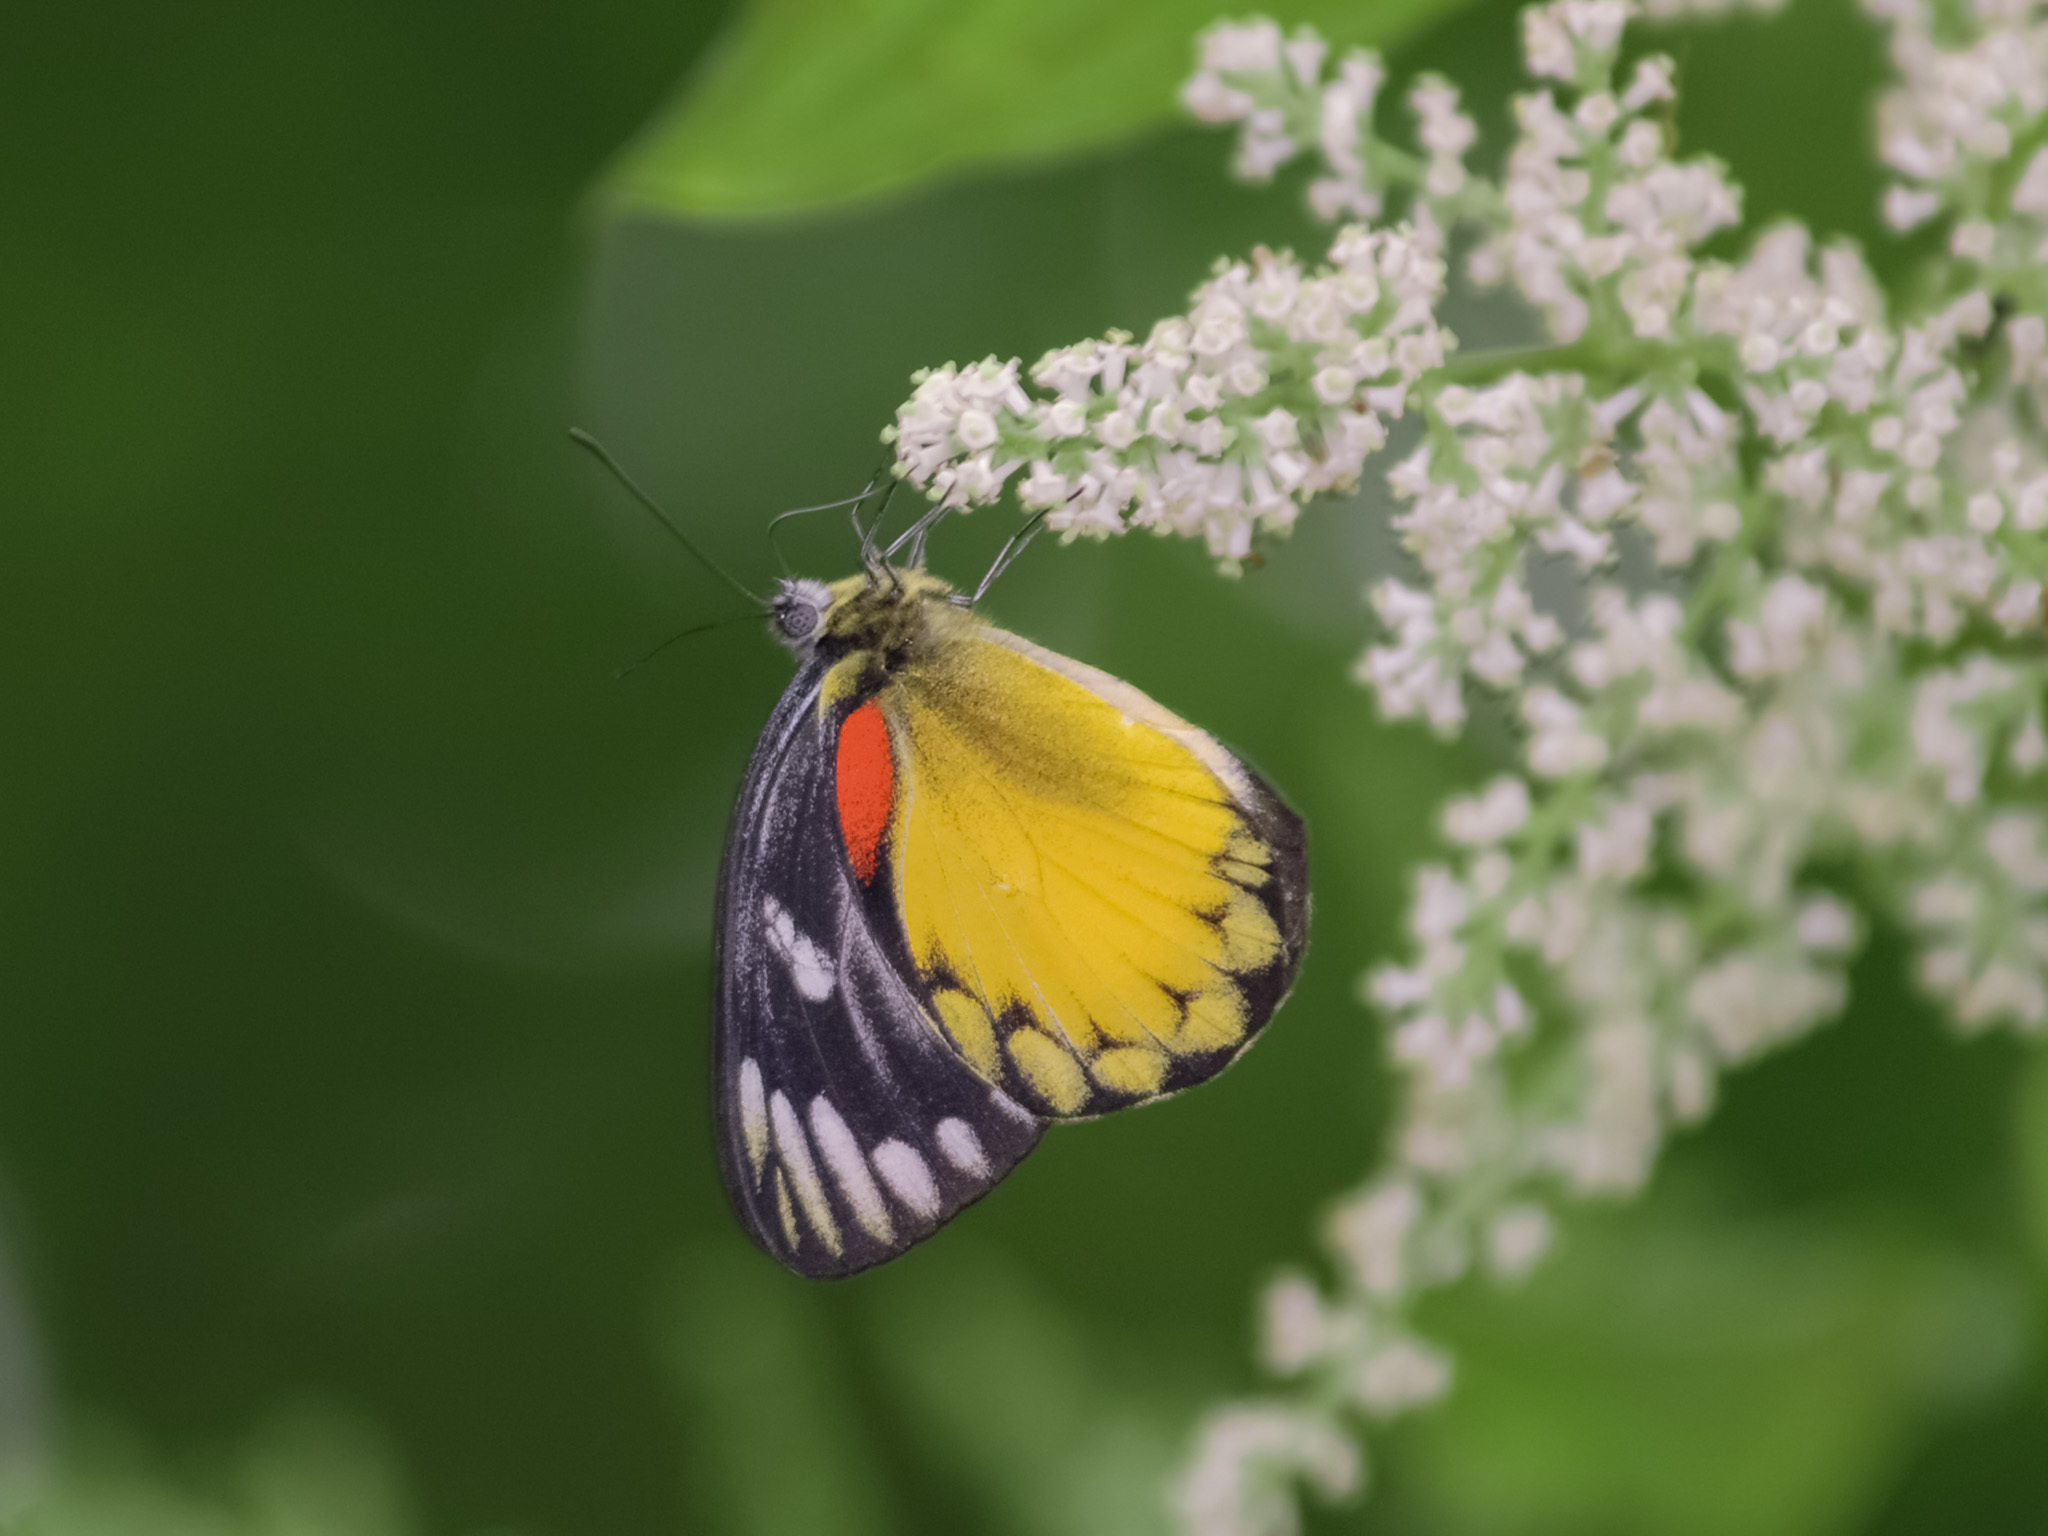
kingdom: Animalia
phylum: Arthropoda
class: Insecta
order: Lepidoptera
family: Pieridae
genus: Delias
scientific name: Delias descombesi
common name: Red-spot jezebel
